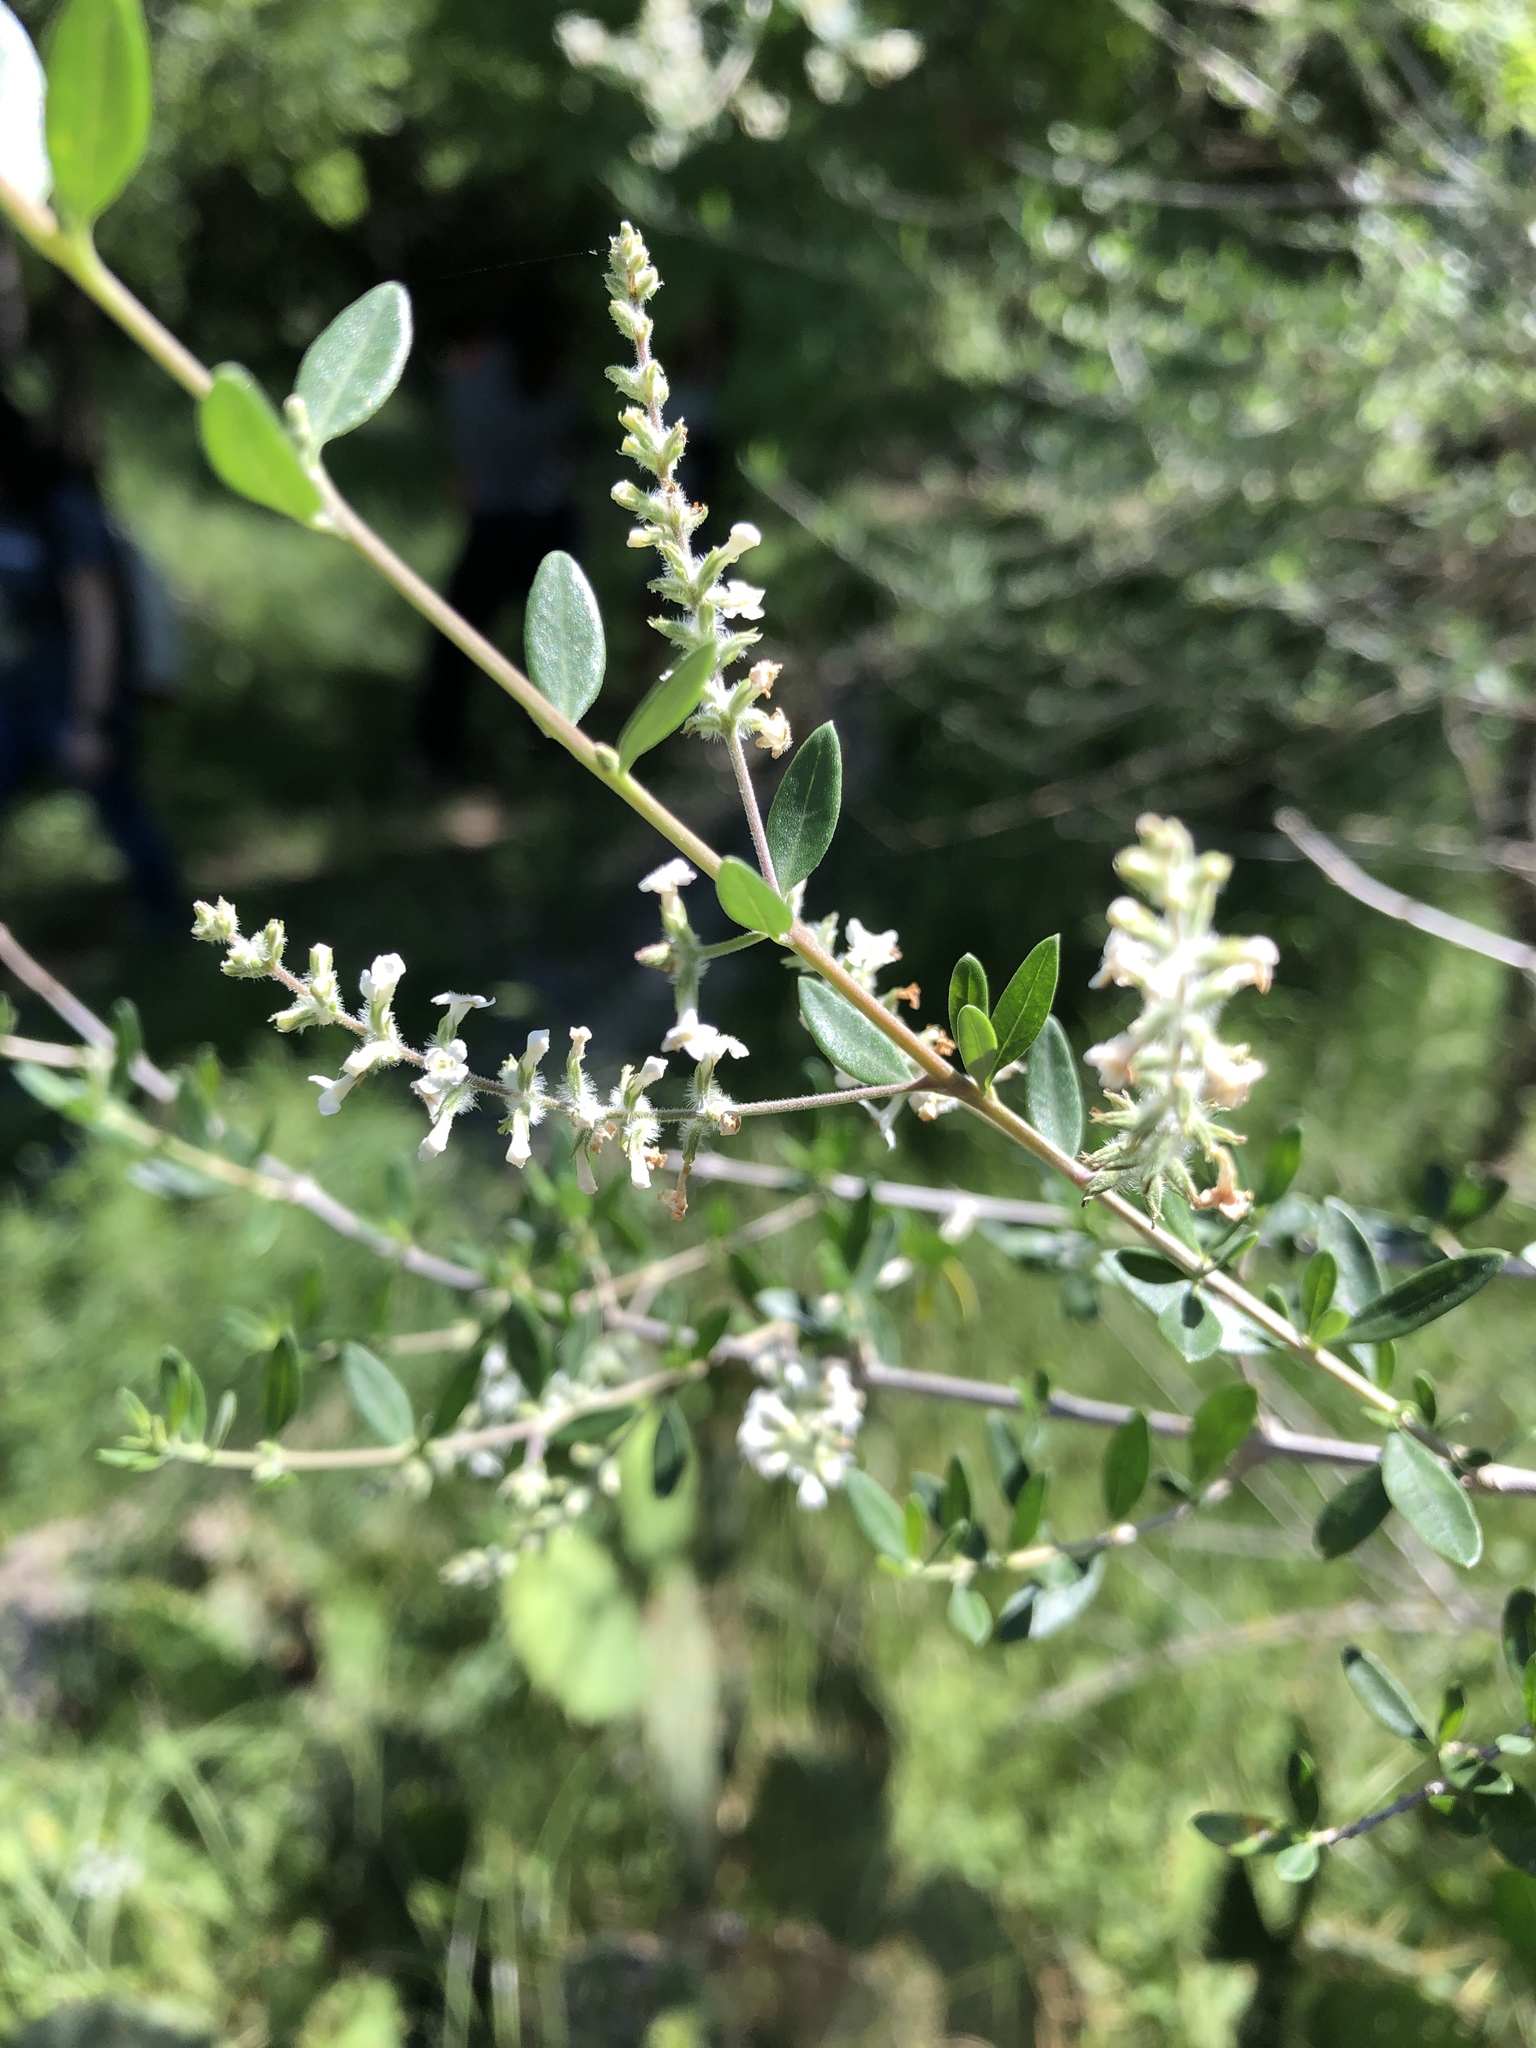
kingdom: Plantae
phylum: Tracheophyta
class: Magnoliopsida
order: Lamiales
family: Verbenaceae
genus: Aloysia
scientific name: Aloysia gratissima
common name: Common bee-brush
